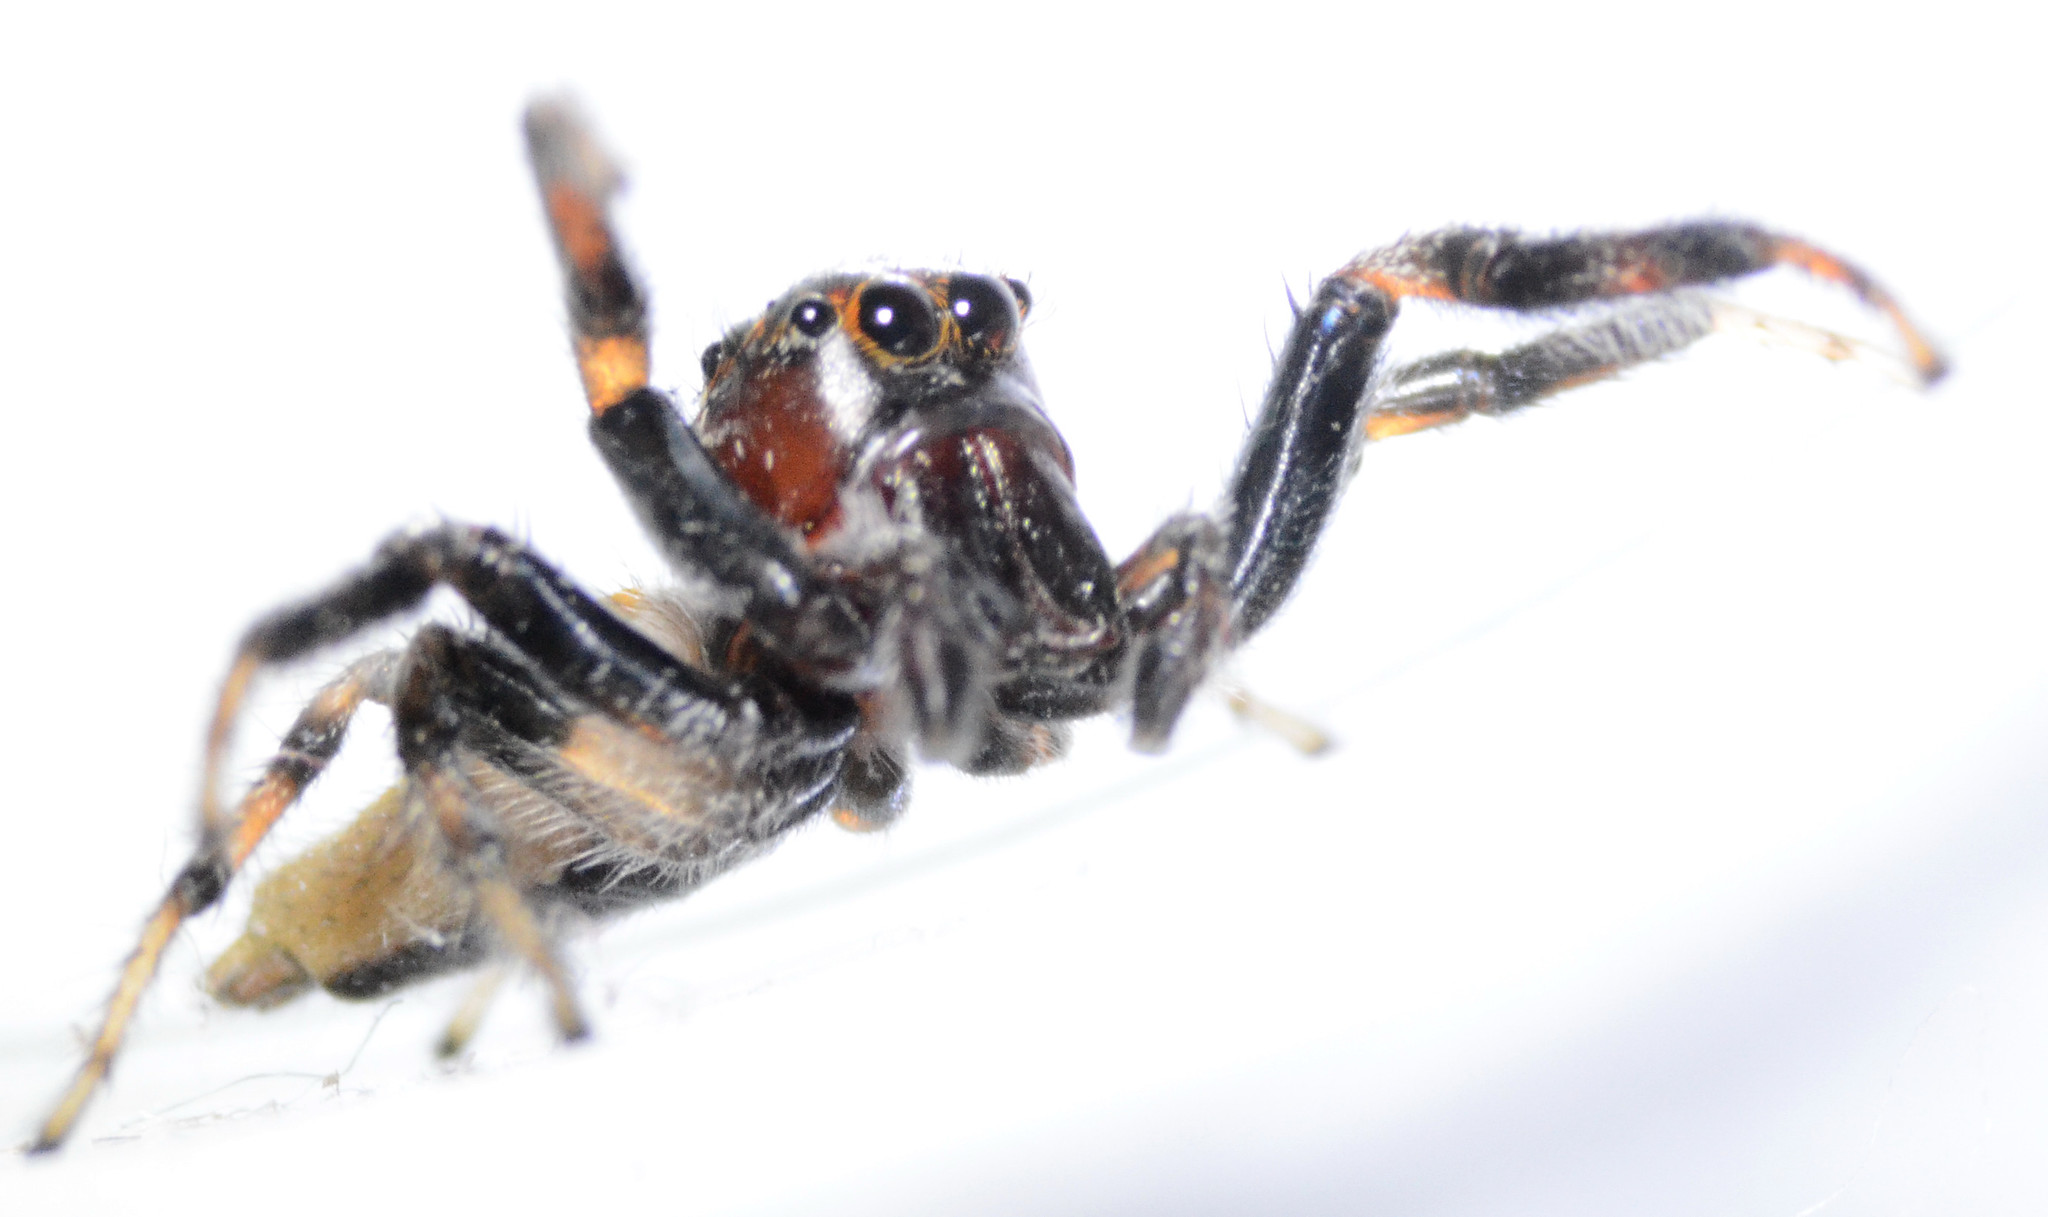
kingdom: Animalia
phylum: Arthropoda
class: Arachnida
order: Araneae
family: Salticidae
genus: Colonus
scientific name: Colonus hesperus
